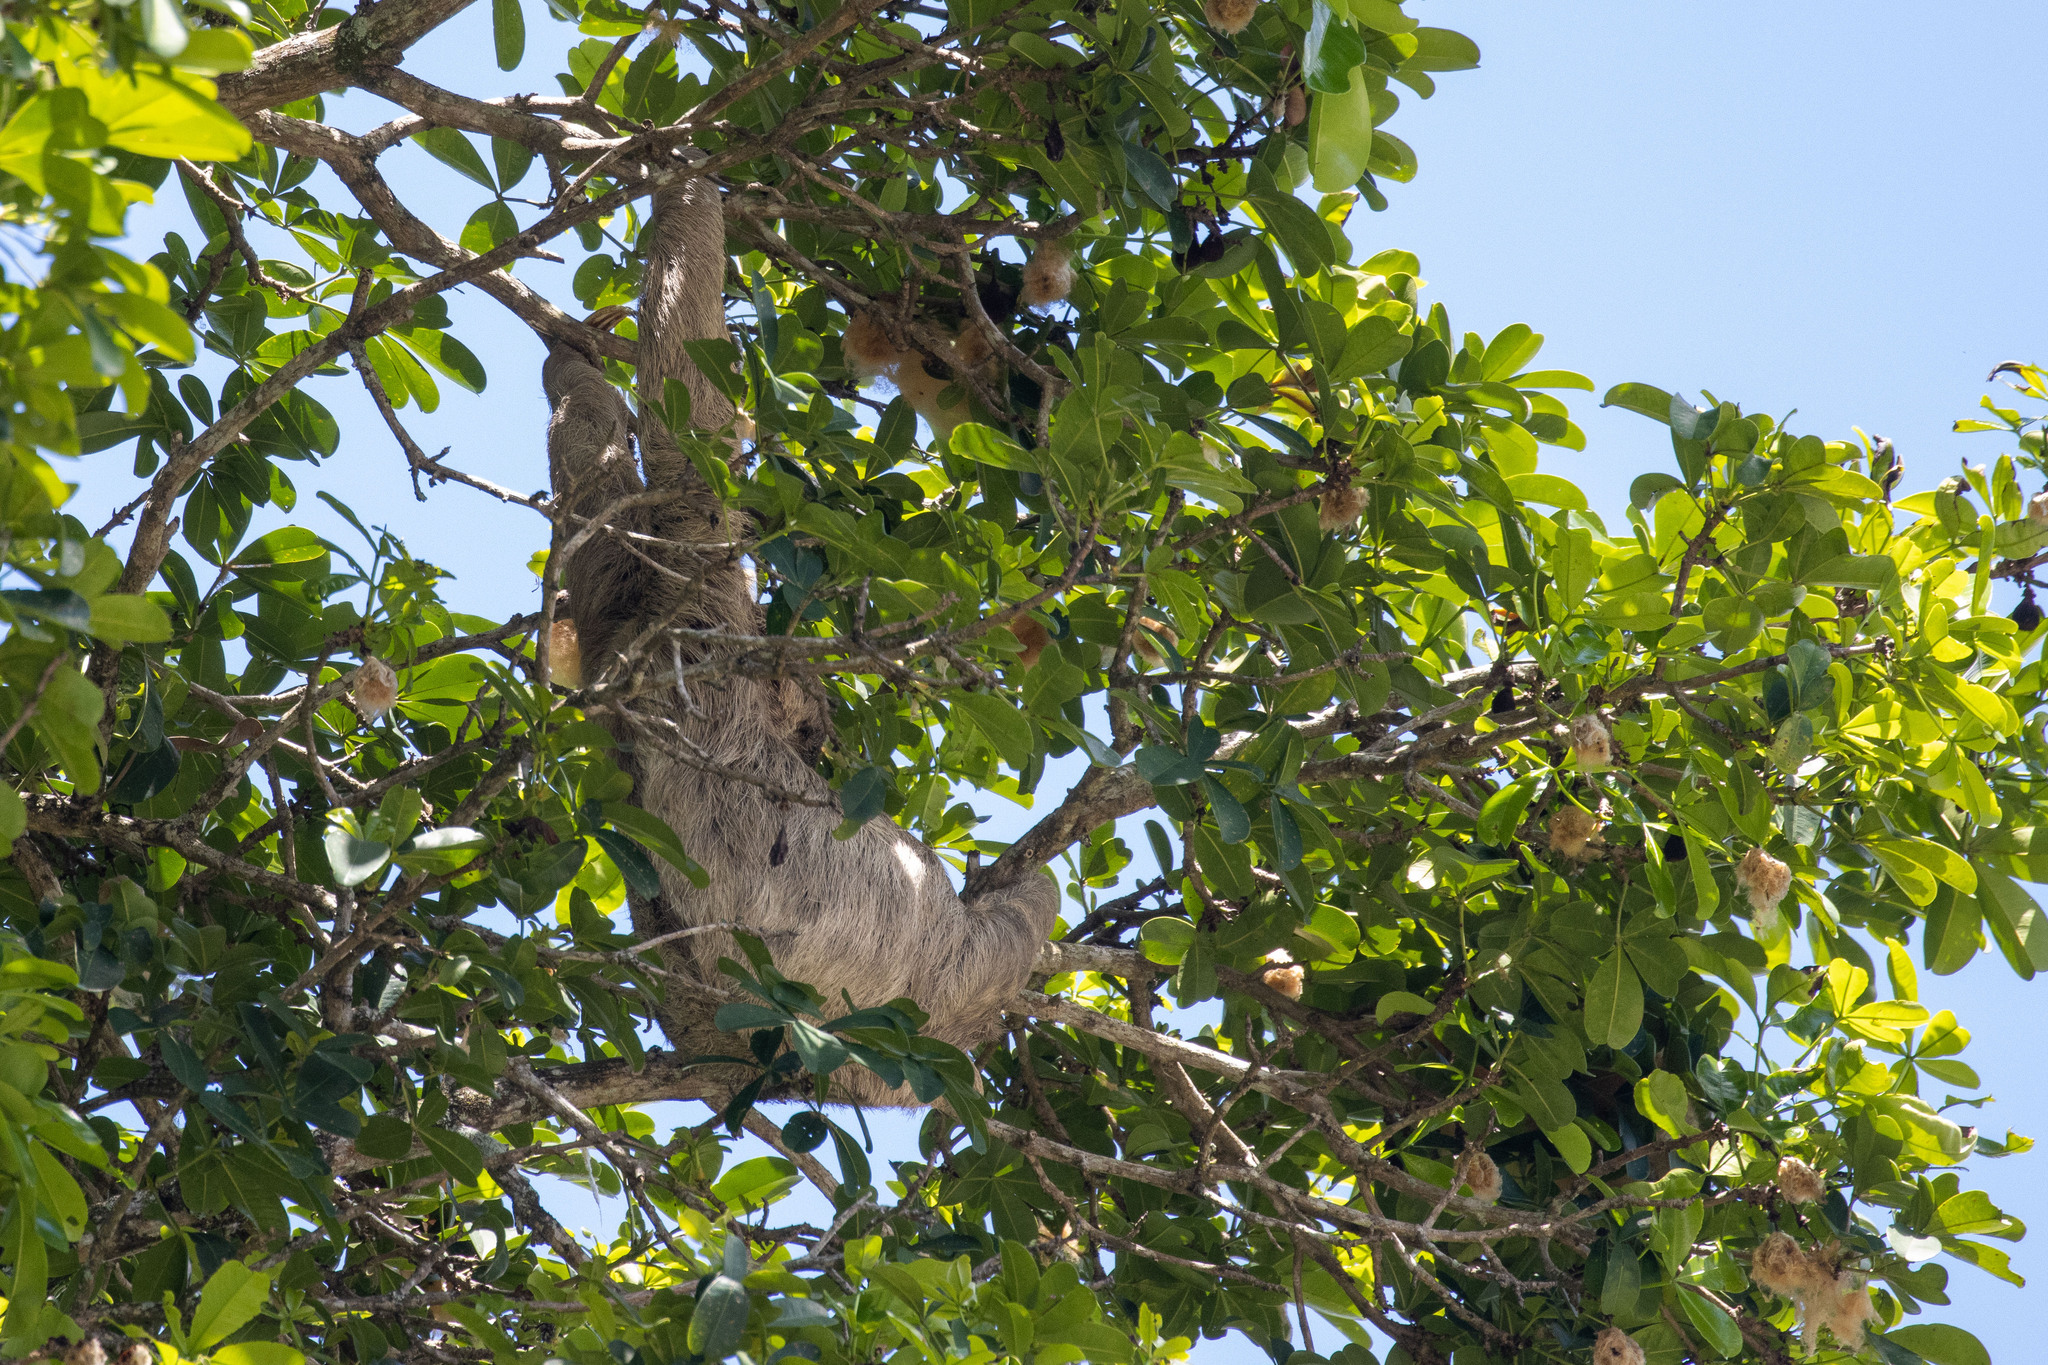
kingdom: Animalia
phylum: Chordata
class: Mammalia
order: Pilosa
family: Bradypodidae
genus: Bradypus
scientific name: Bradypus variegatus
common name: Brown-throated three-toed sloth
